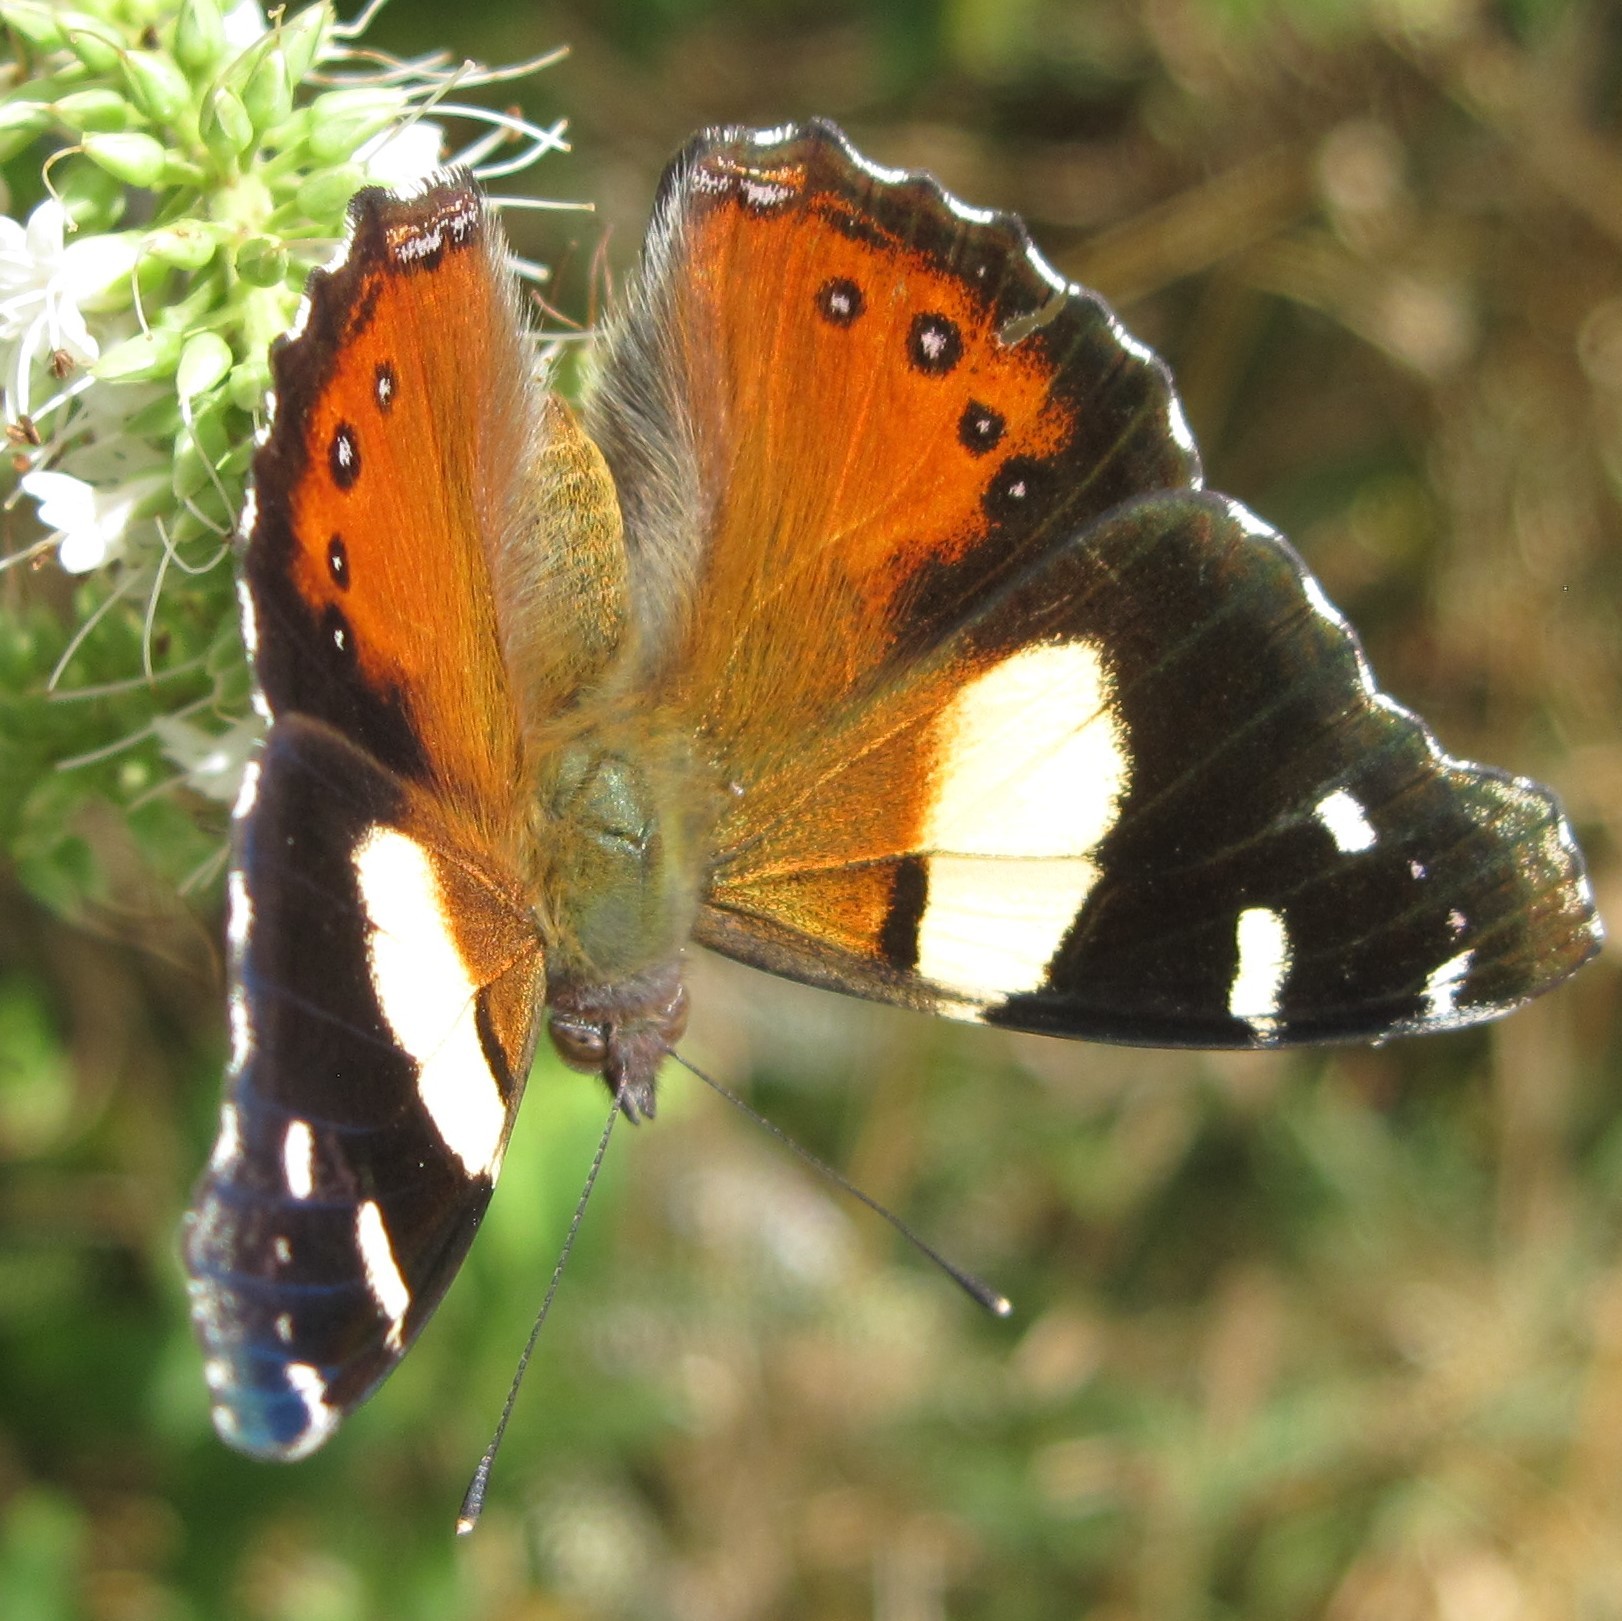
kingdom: Animalia
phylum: Arthropoda
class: Insecta
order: Lepidoptera
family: Nymphalidae
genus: Vanessa
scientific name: Vanessa itea
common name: Yellow admiral
